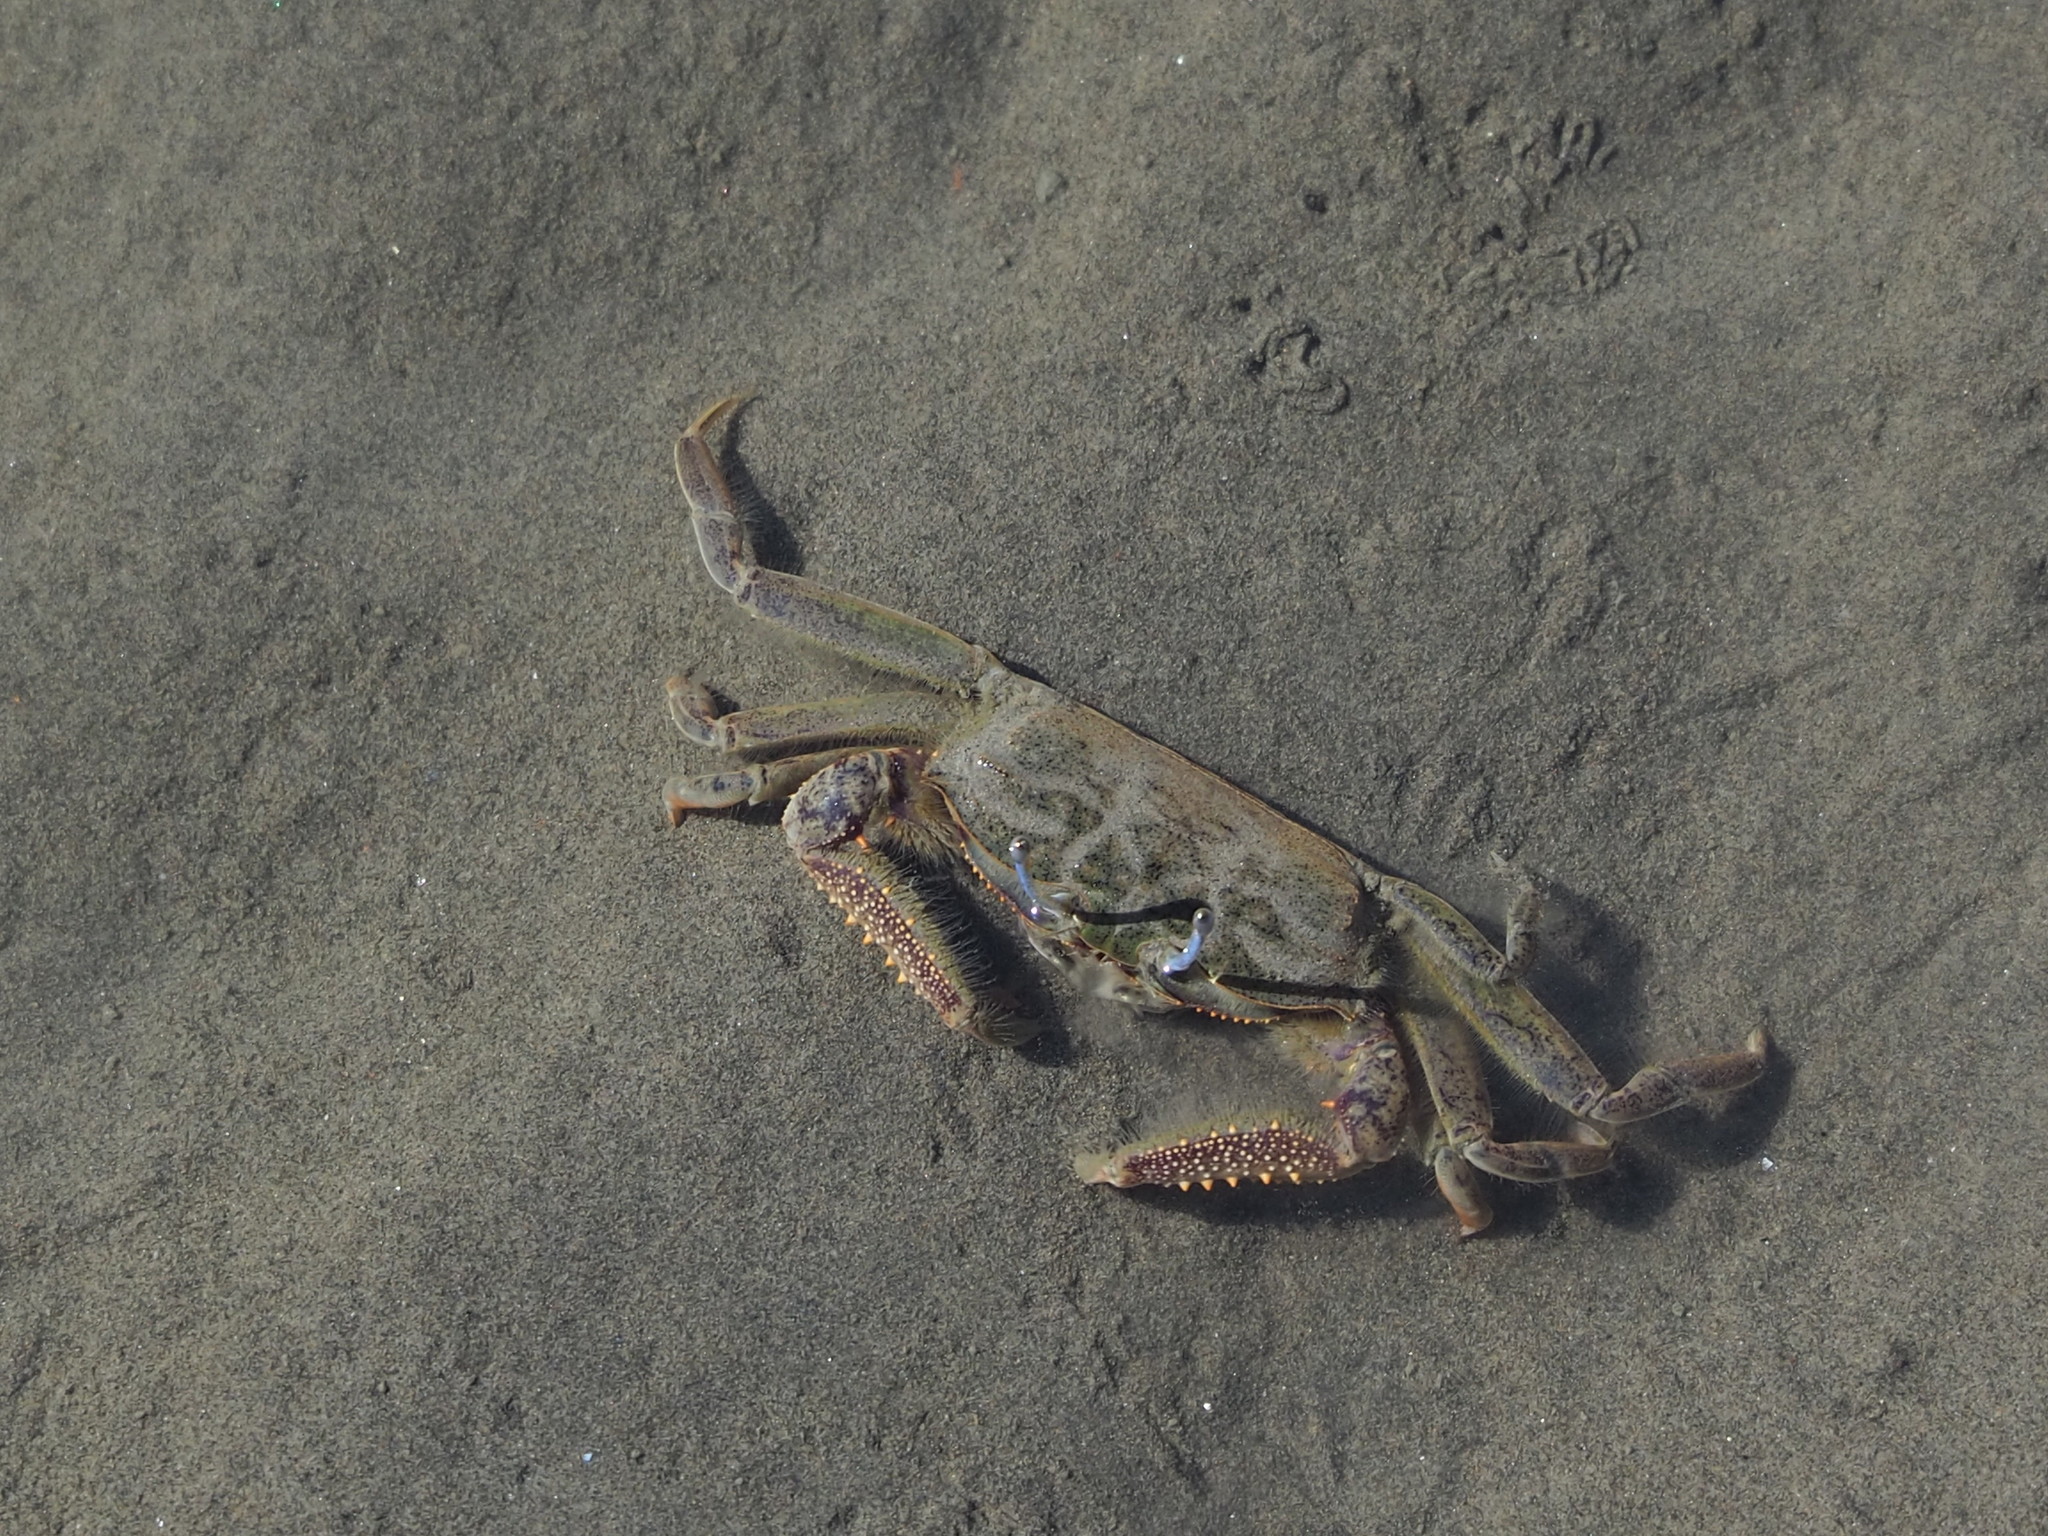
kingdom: Animalia
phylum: Arthropoda
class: Malacostraca
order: Decapoda
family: Macrophthalmidae
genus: Macrophthalmus
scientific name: Macrophthalmus abbreviatus
